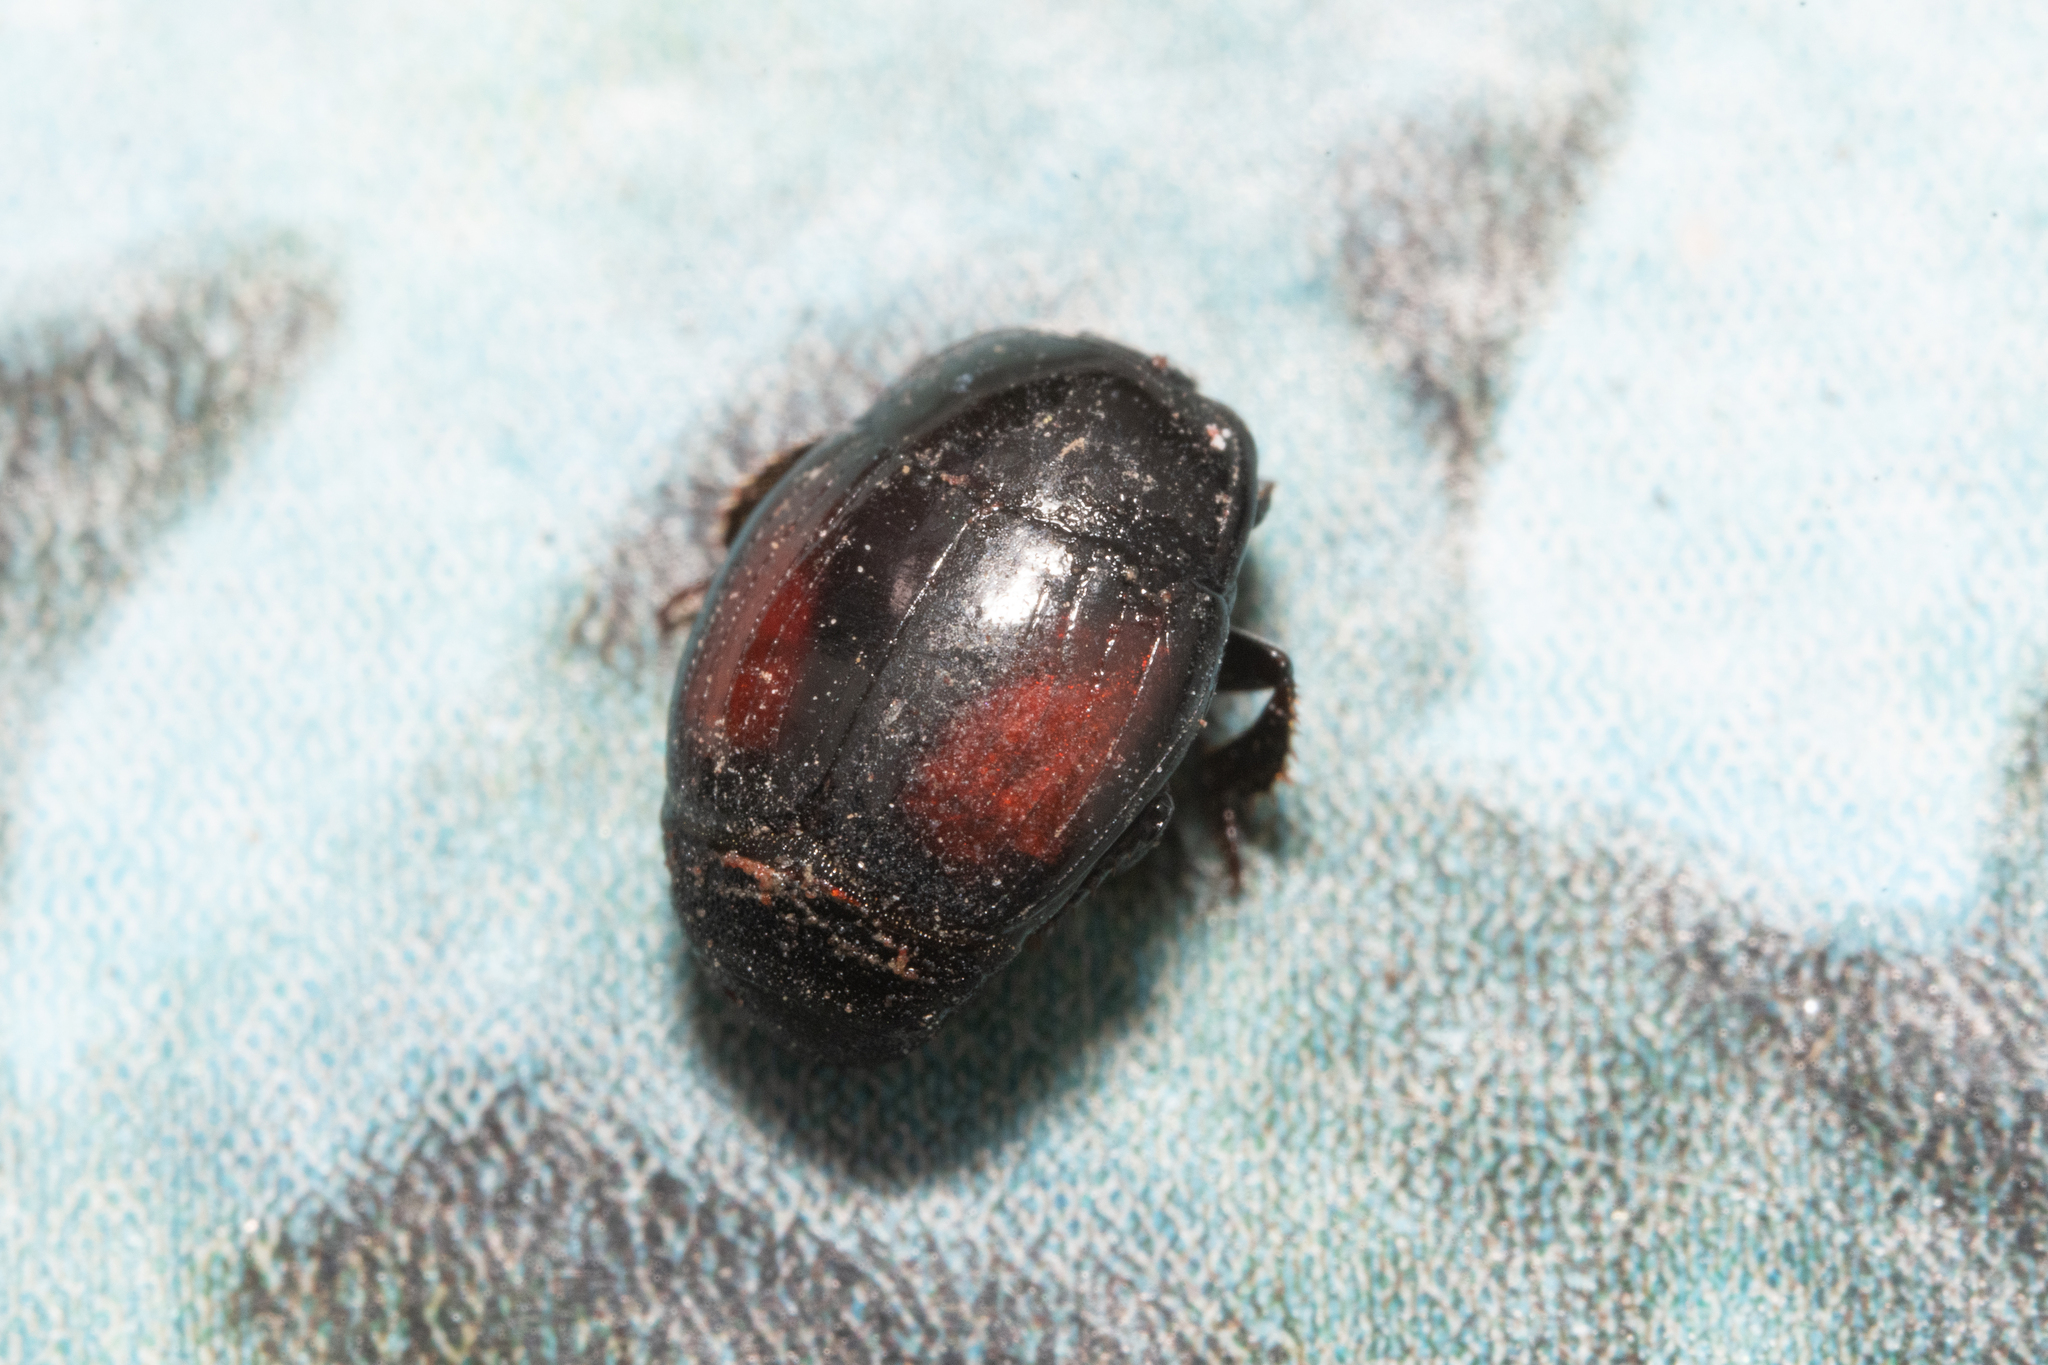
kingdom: Animalia
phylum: Arthropoda
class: Insecta
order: Coleoptera
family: Histeridae
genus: Margarinotus
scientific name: Margarinotus purpurascens
